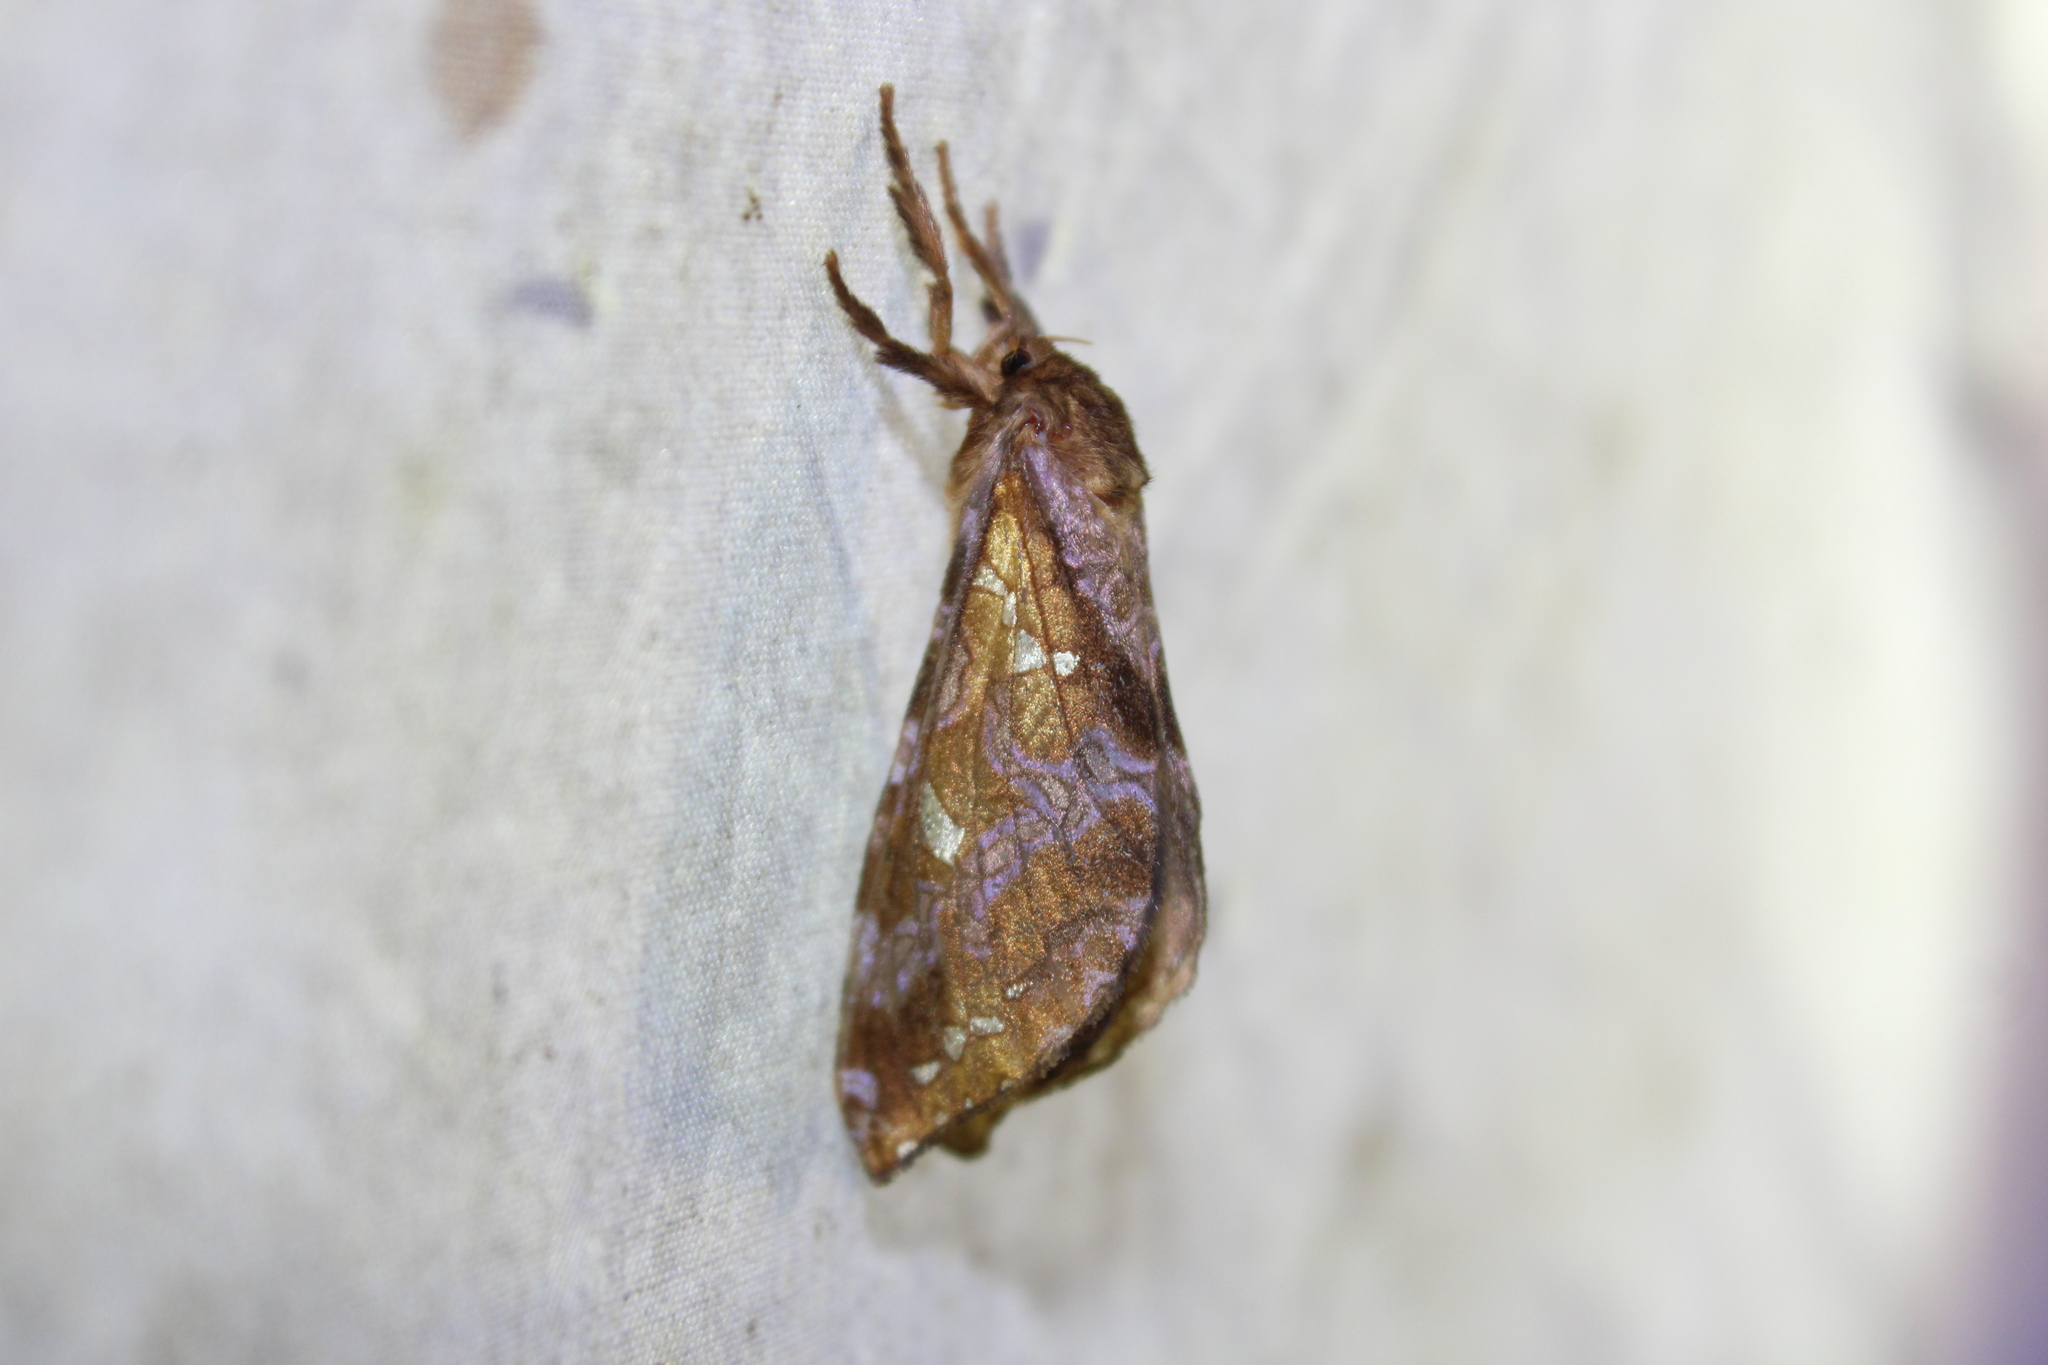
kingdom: Animalia
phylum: Arthropoda
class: Insecta
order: Lepidoptera
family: Hepialidae
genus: Sthenopis
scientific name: Sthenopis pretiosus
